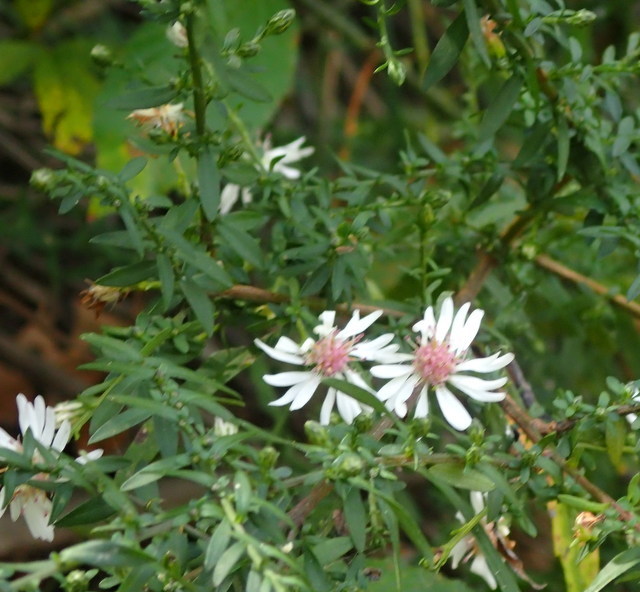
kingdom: Plantae
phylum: Tracheophyta
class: Magnoliopsida
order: Asterales
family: Asteraceae
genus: Symphyotrichum
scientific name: Symphyotrichum lateriflorum
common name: Calico aster
